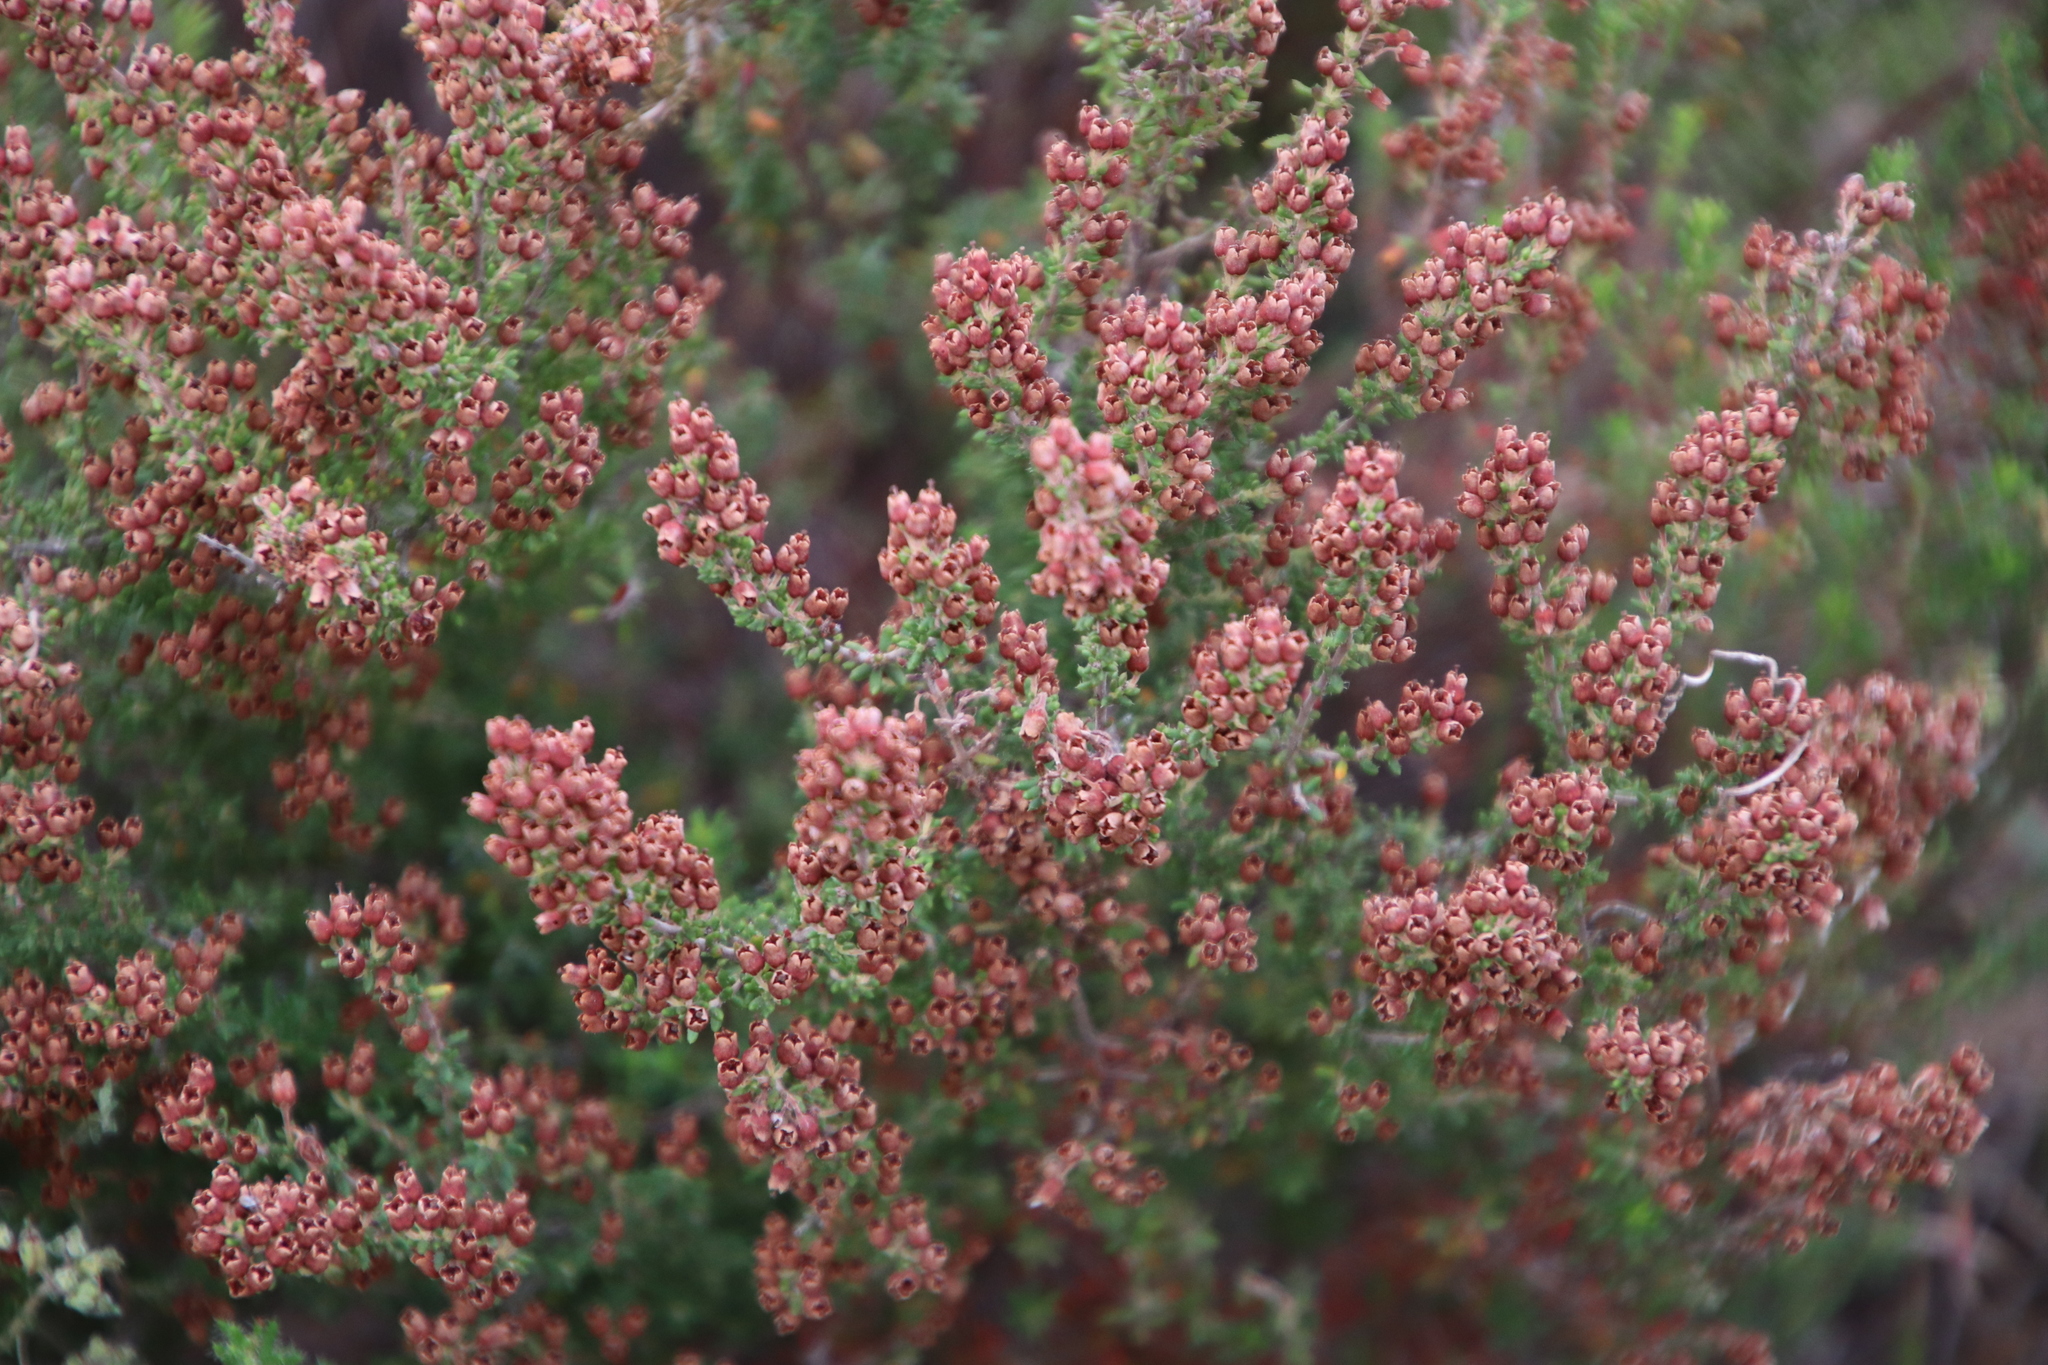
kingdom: Plantae
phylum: Tracheophyta
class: Magnoliopsida
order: Ericales
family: Ericaceae
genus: Erica
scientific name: Erica setacea
